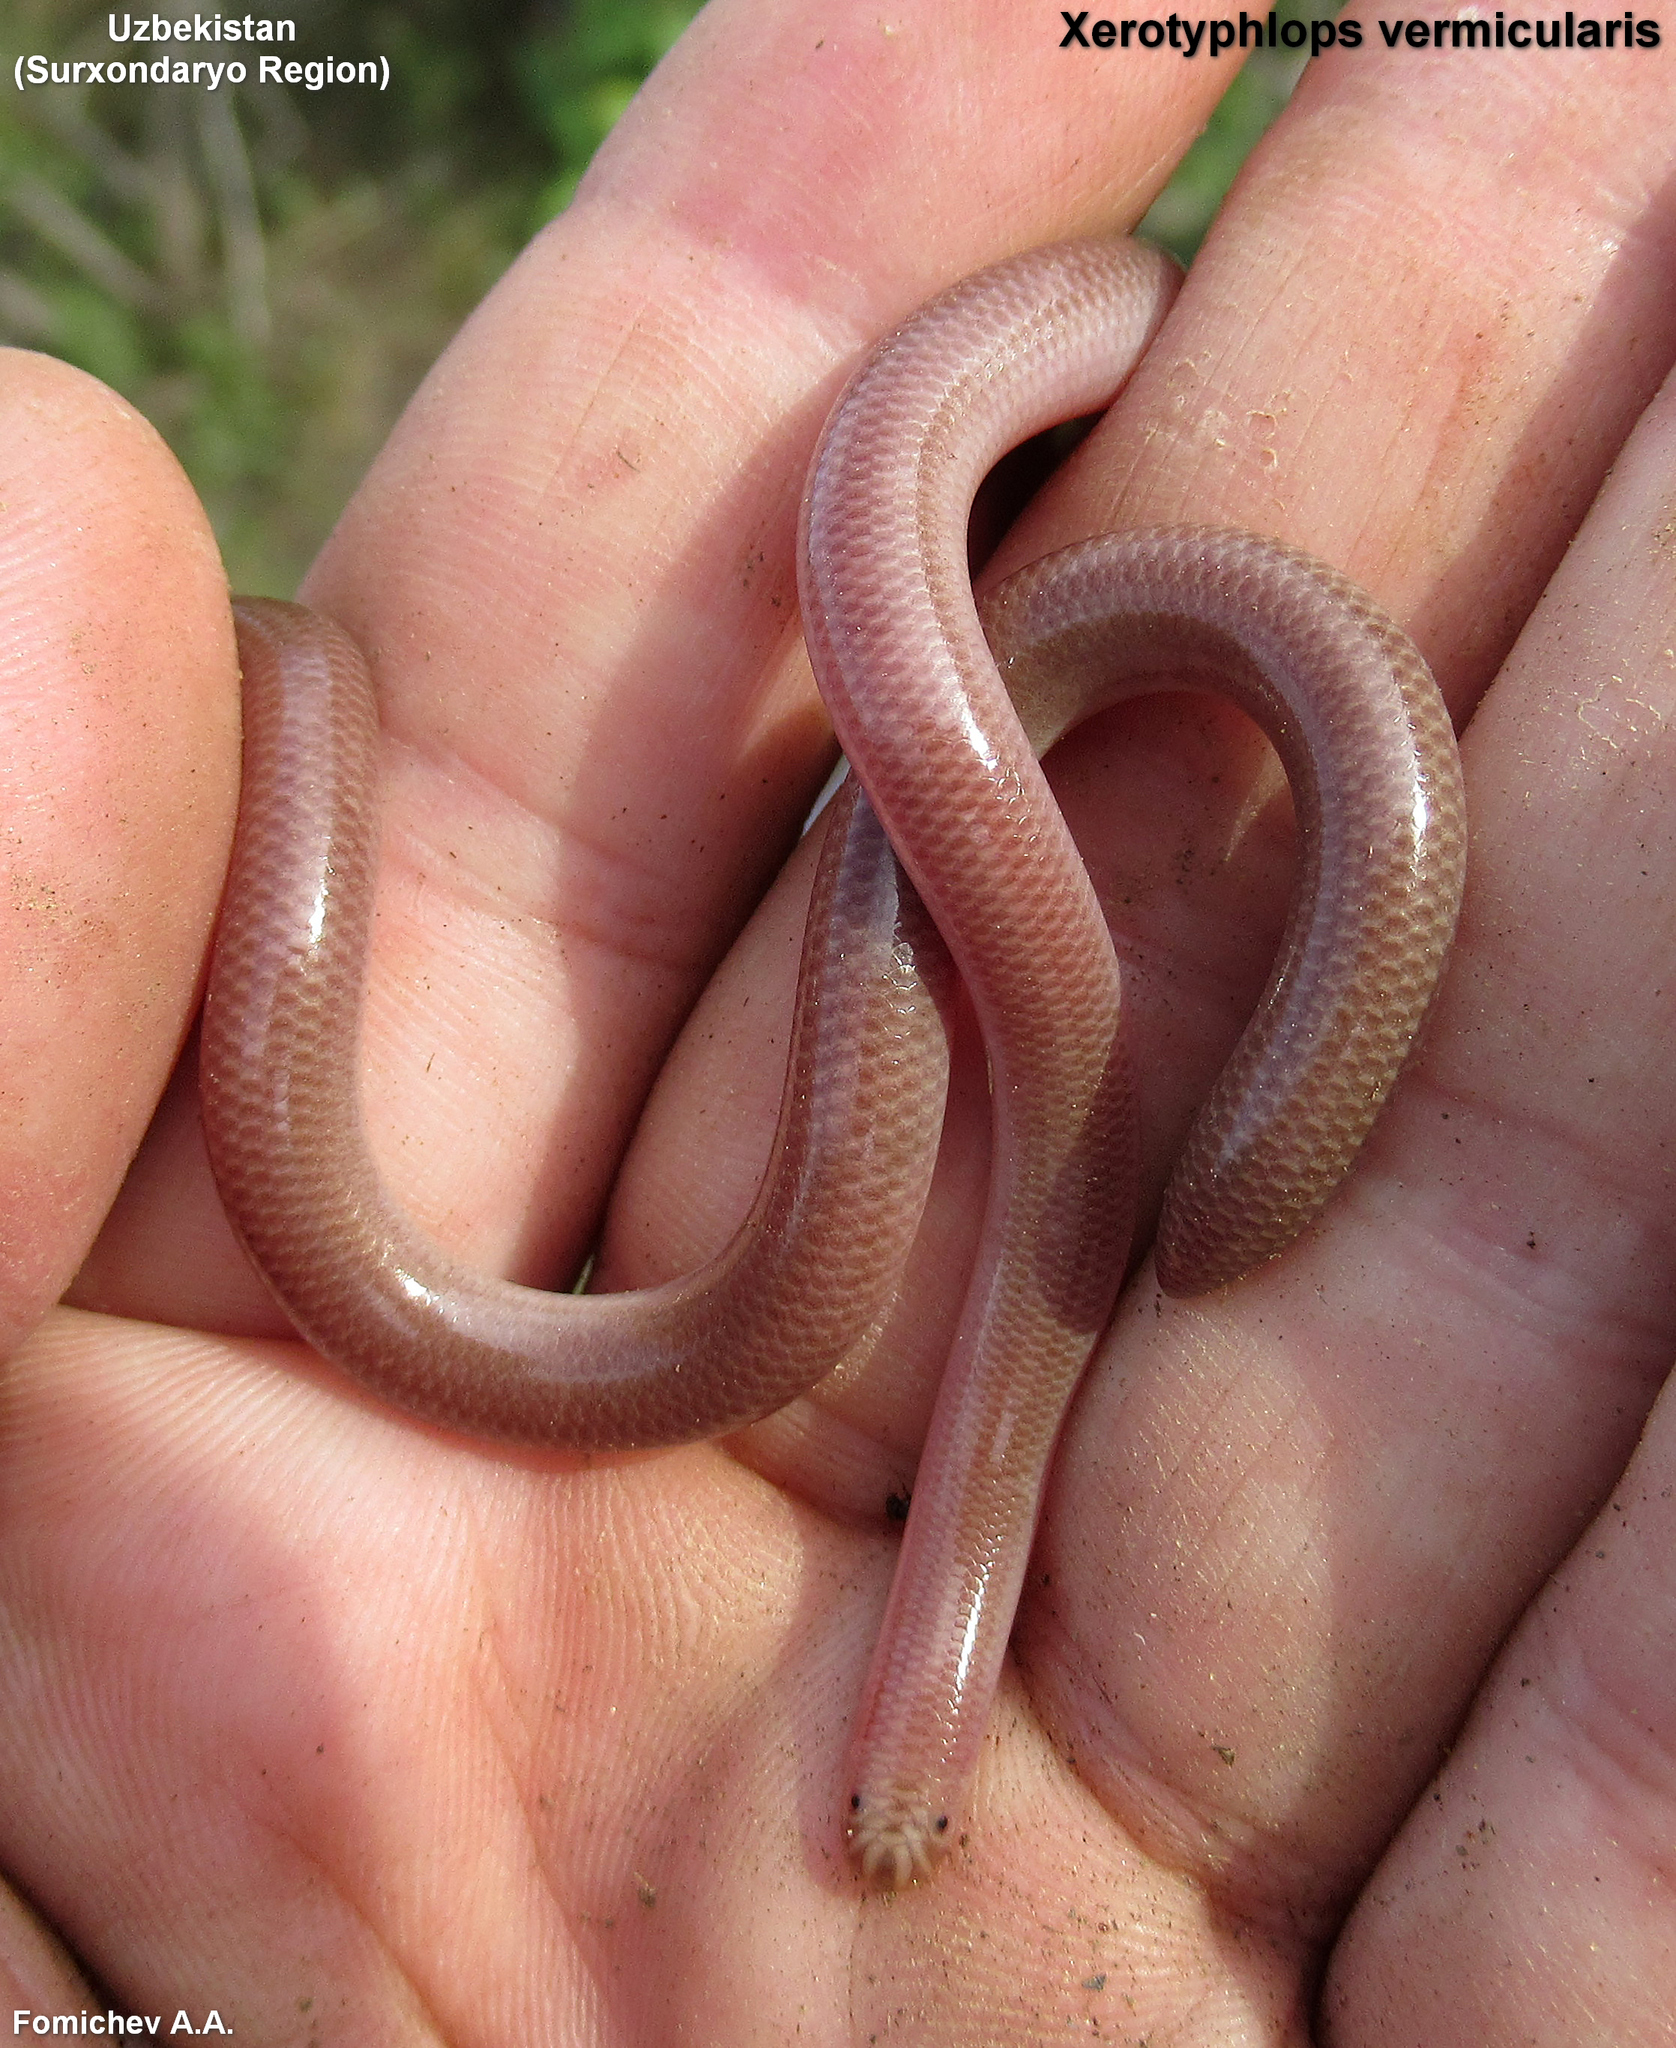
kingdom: Animalia
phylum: Chordata
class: Squamata
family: Typhlopidae
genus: Xerotyphlops
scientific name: Xerotyphlops vermicularis
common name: Eurasian blind snake
